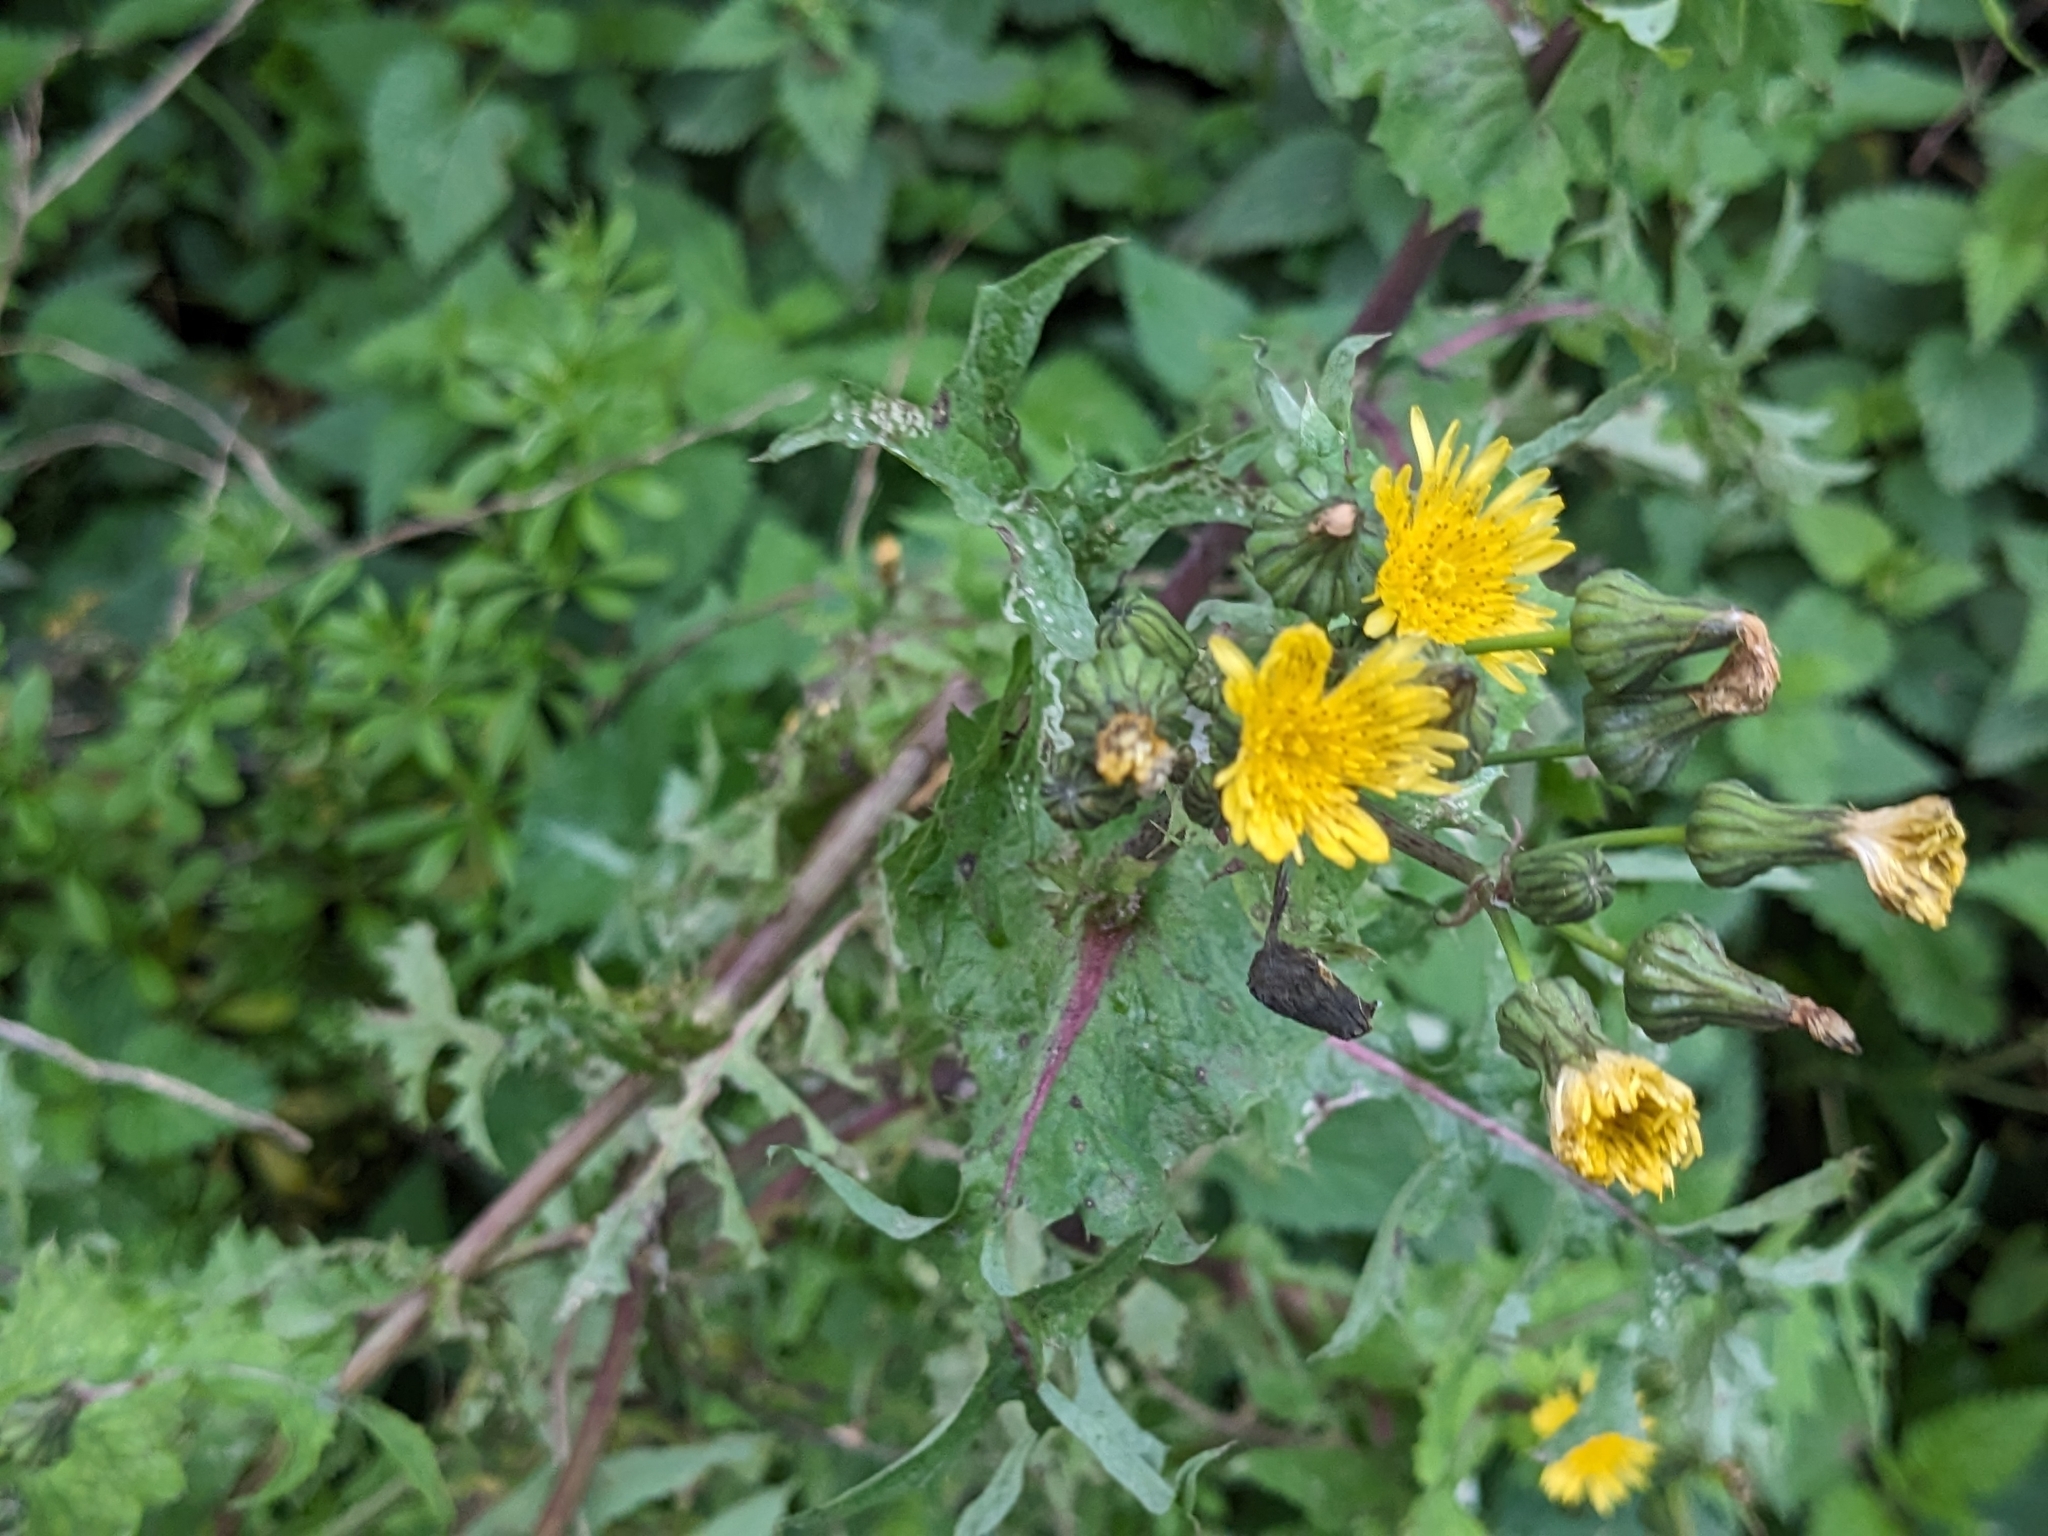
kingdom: Plantae
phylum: Tracheophyta
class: Magnoliopsida
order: Asterales
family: Asteraceae
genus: Sonchus
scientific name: Sonchus oleraceus
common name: Common sowthistle
